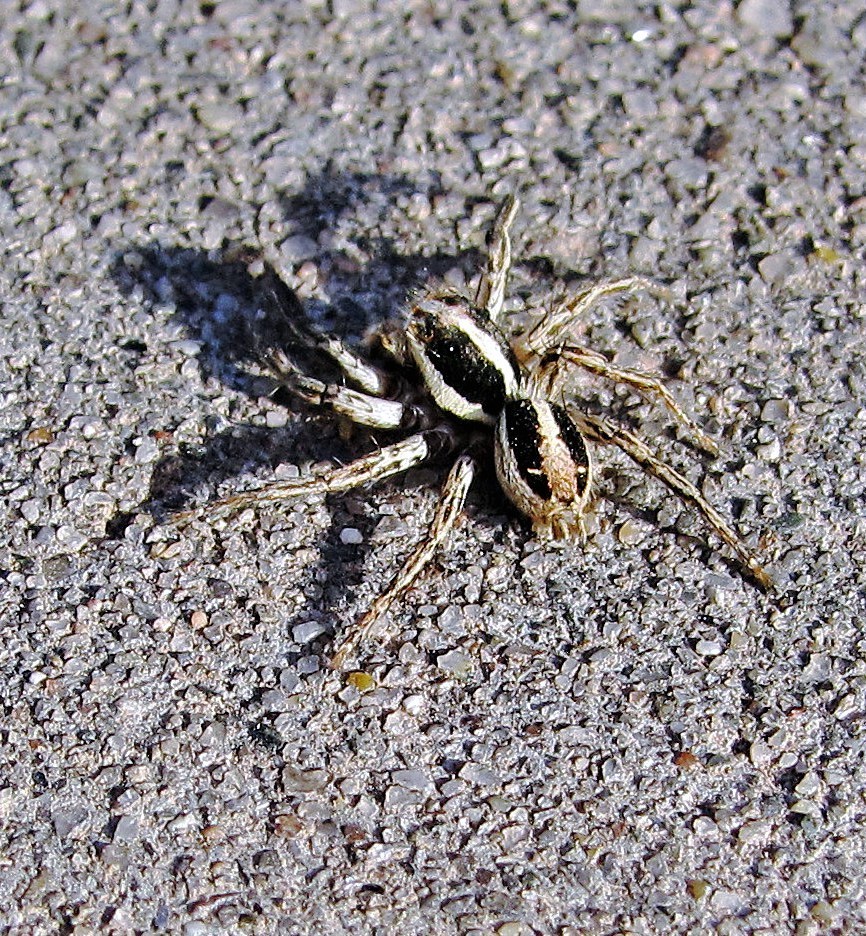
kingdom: Animalia
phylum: Arthropoda
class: Arachnida
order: Araneae
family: Salticidae
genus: Plexippus
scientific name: Plexippus paykulli
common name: Pantropical jumper
